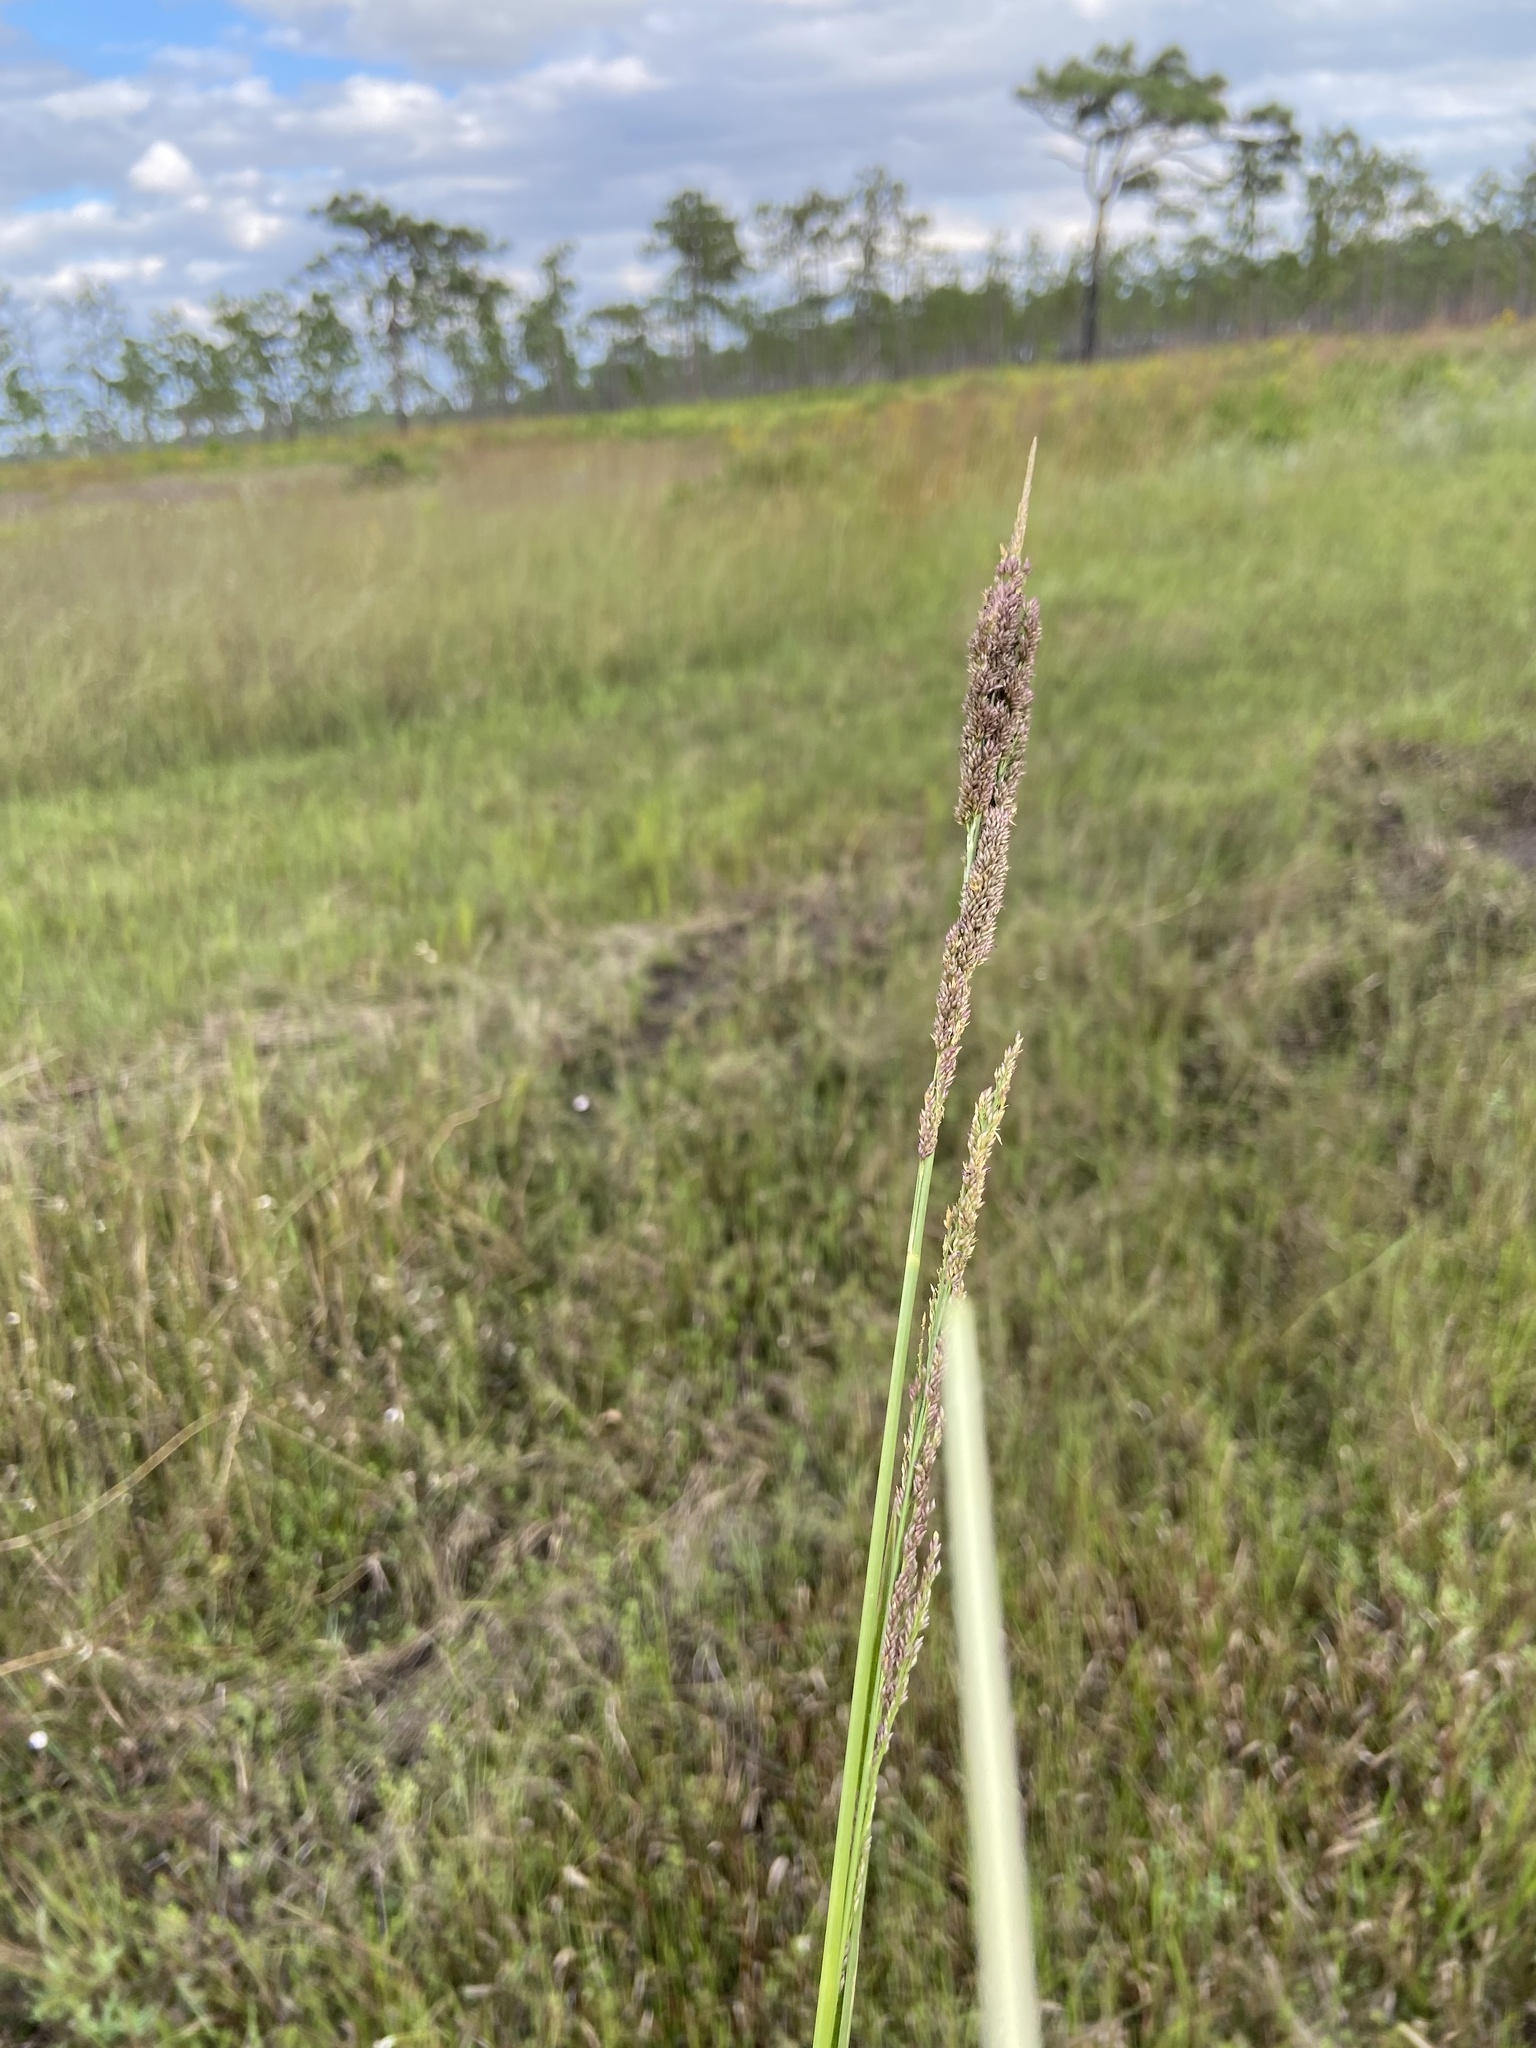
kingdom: Plantae
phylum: Tracheophyta
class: Liliopsida
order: Poales
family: Poaceae
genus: Coleataenia
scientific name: Coleataenia rigidula
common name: Redtop panicgrass
